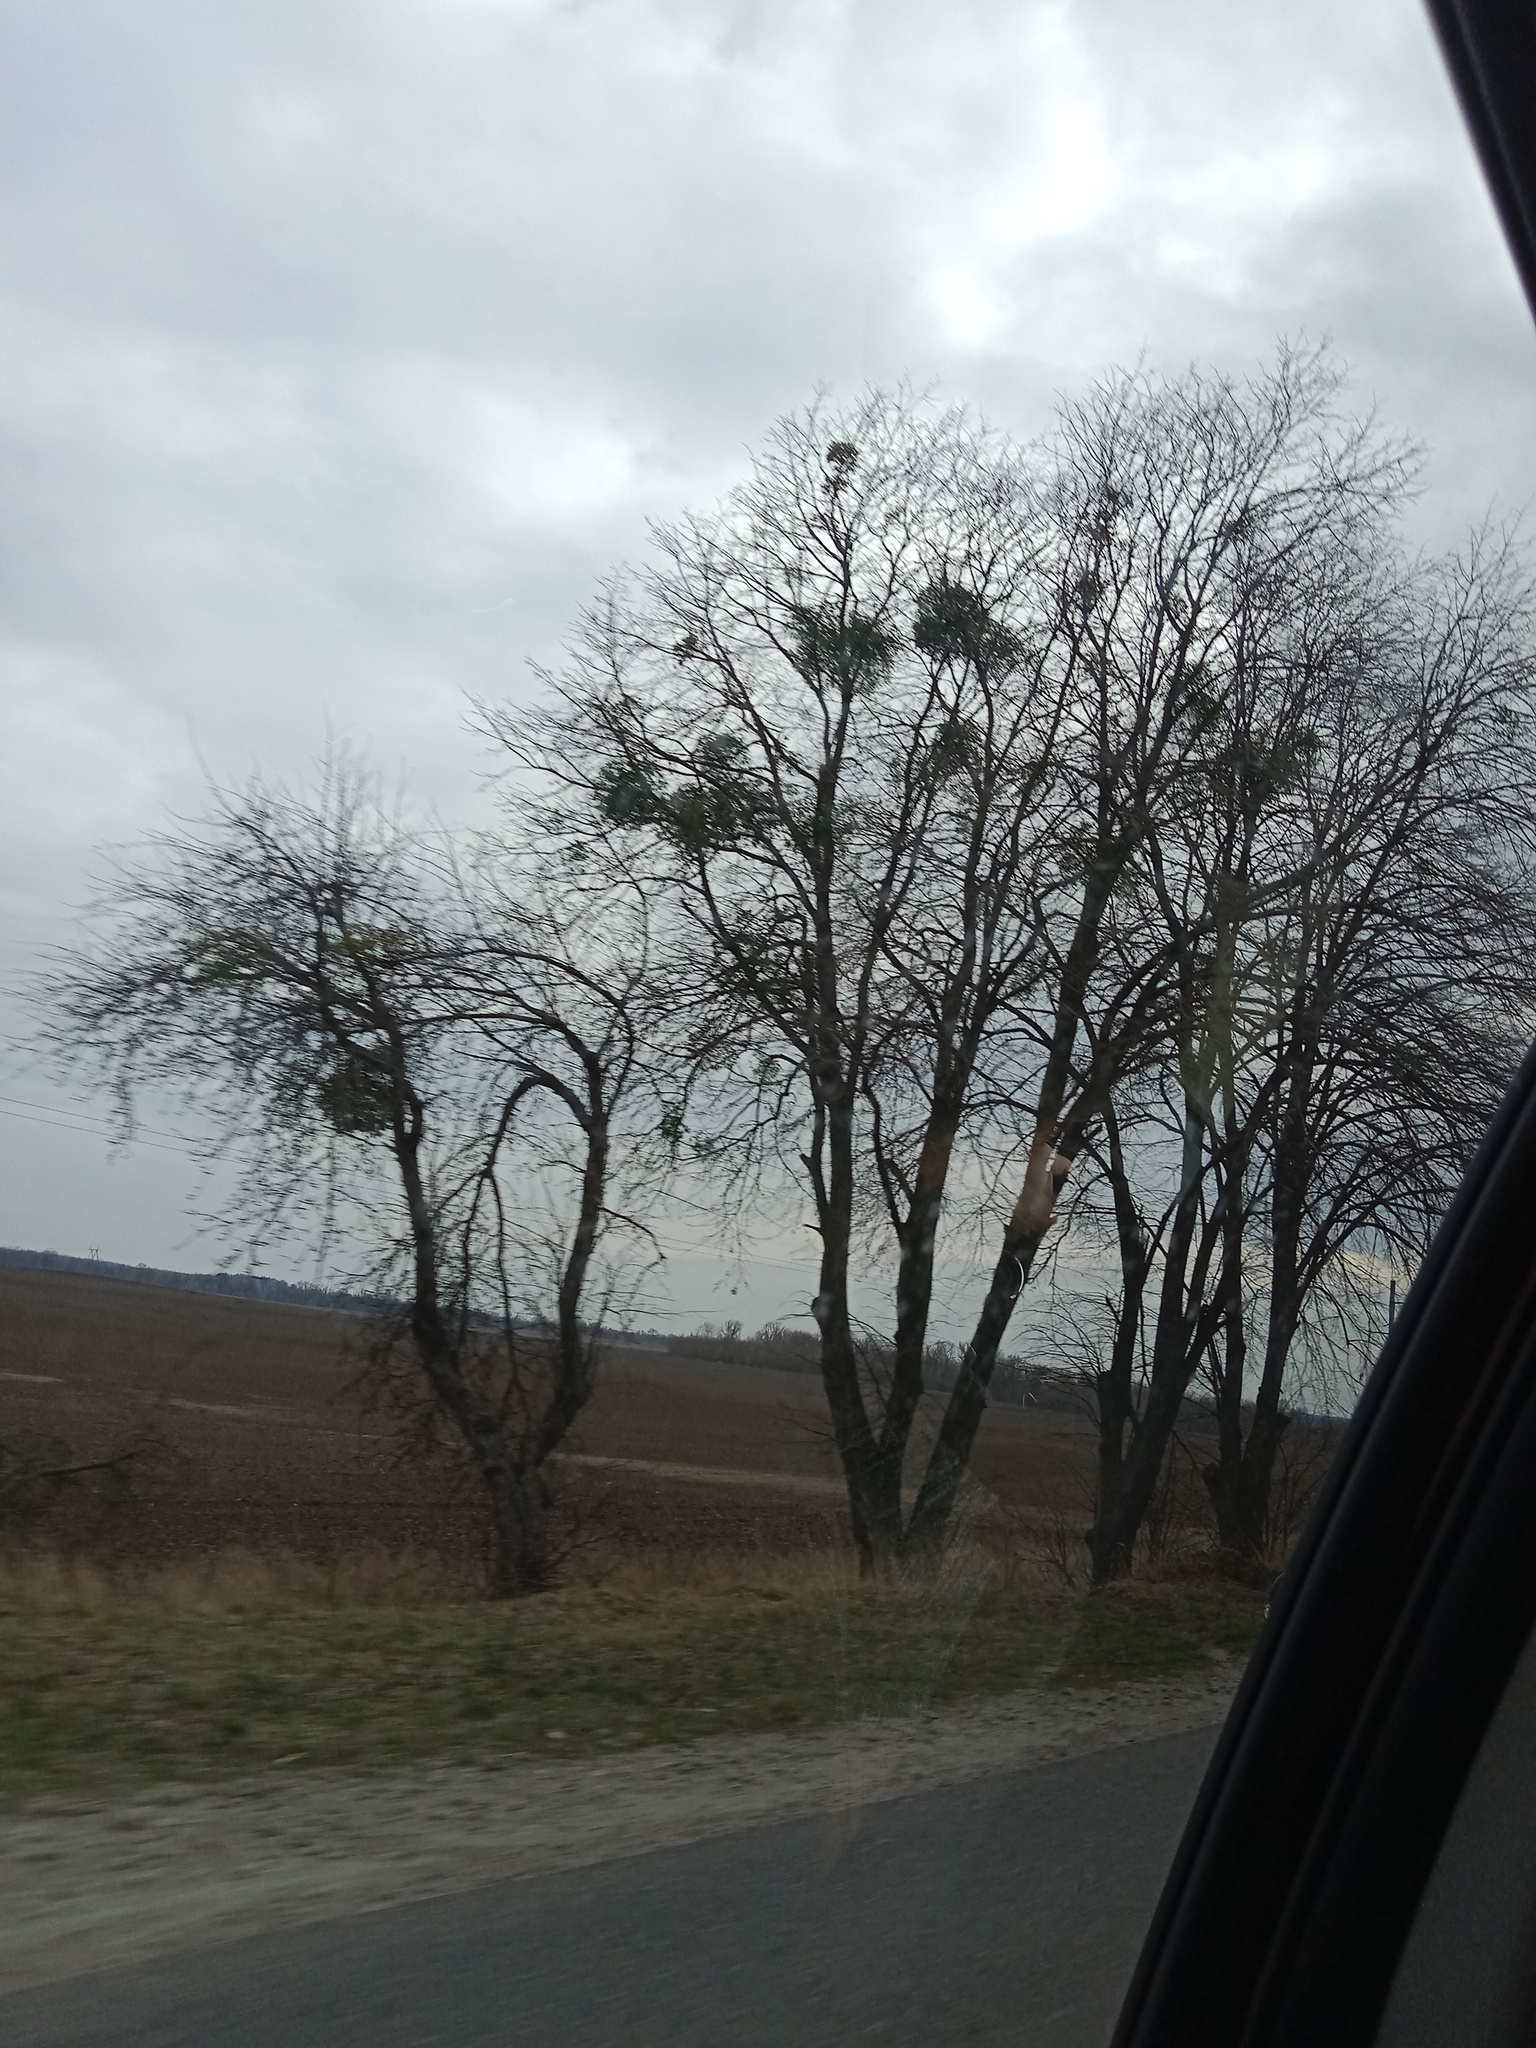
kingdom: Plantae
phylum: Tracheophyta
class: Magnoliopsida
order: Santalales
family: Viscaceae
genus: Viscum
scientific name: Viscum album
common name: Mistletoe
